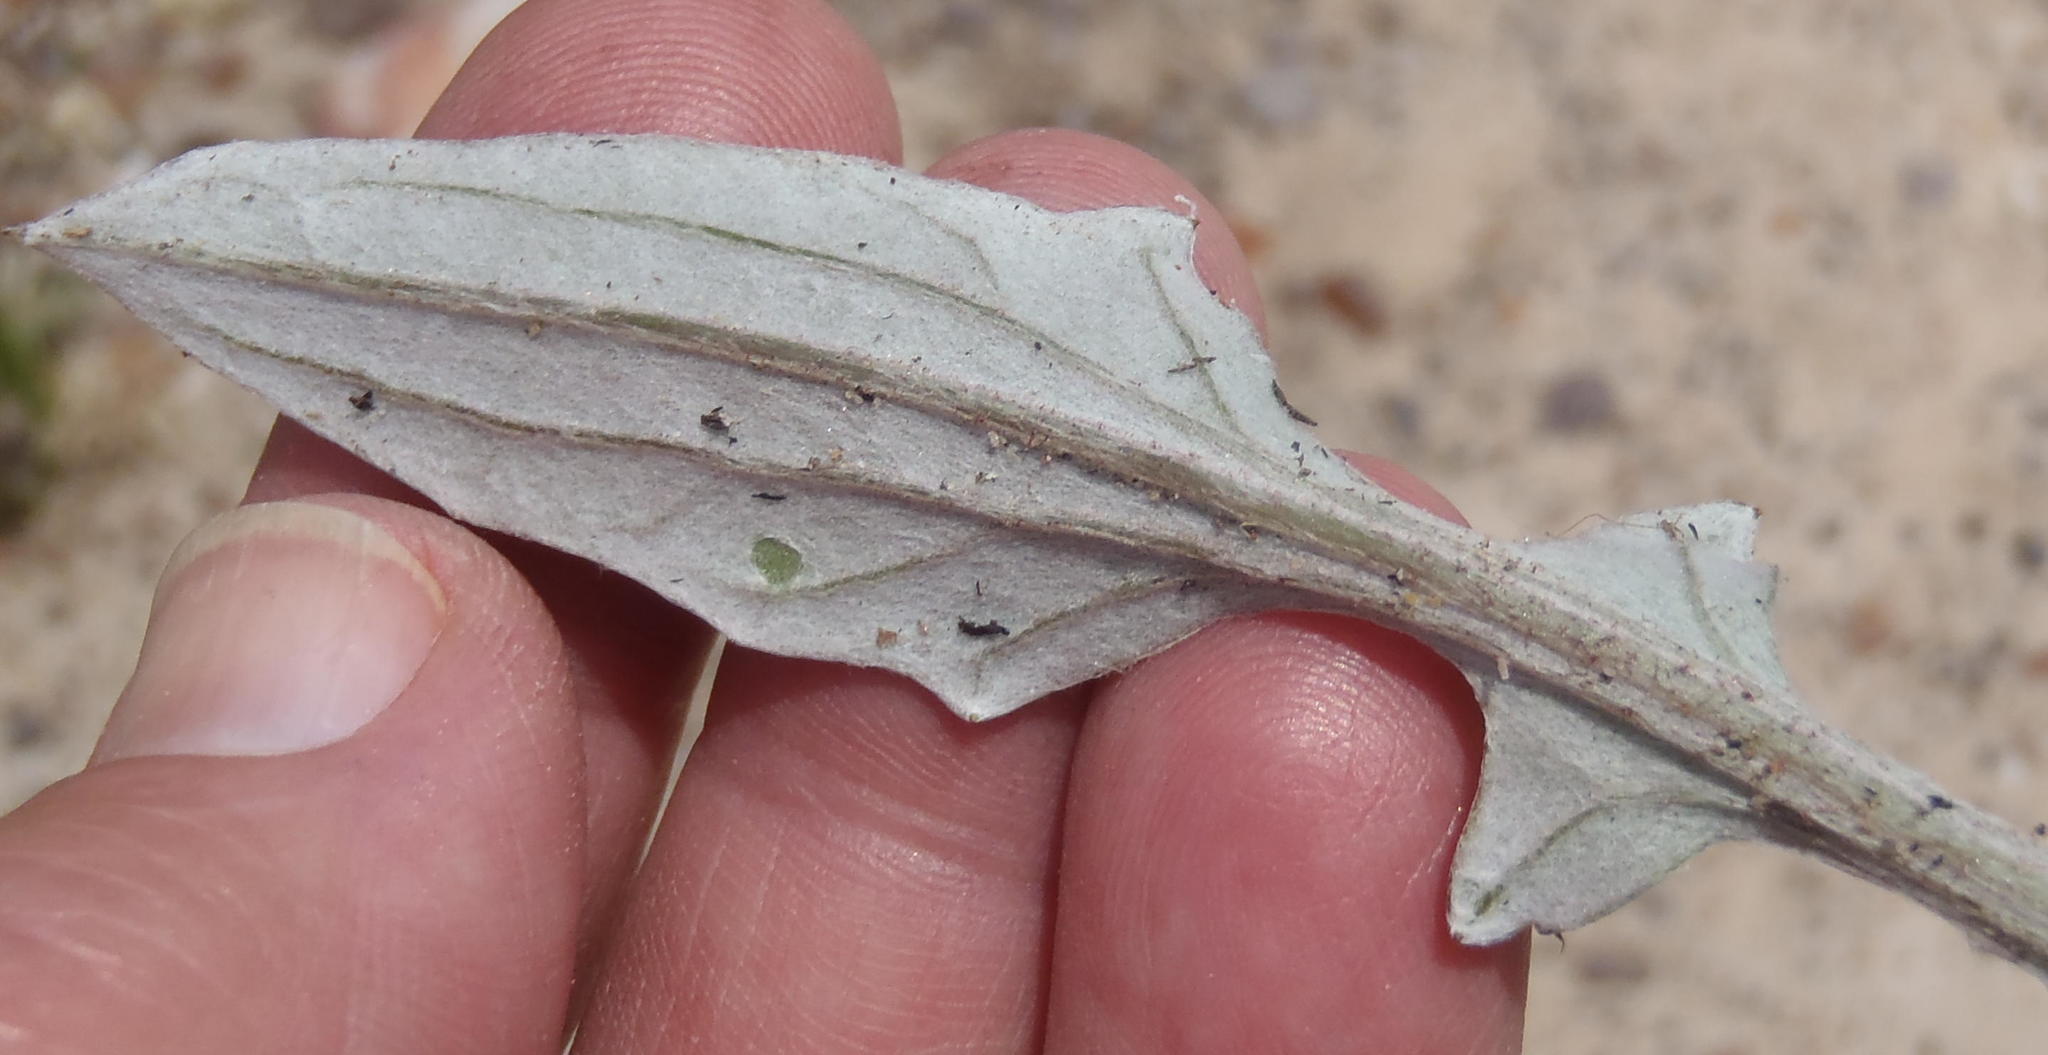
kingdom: Plantae
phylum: Tracheophyta
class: Magnoliopsida
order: Asterales
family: Asteraceae
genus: Arctotis
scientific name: Arctotis acaulis
